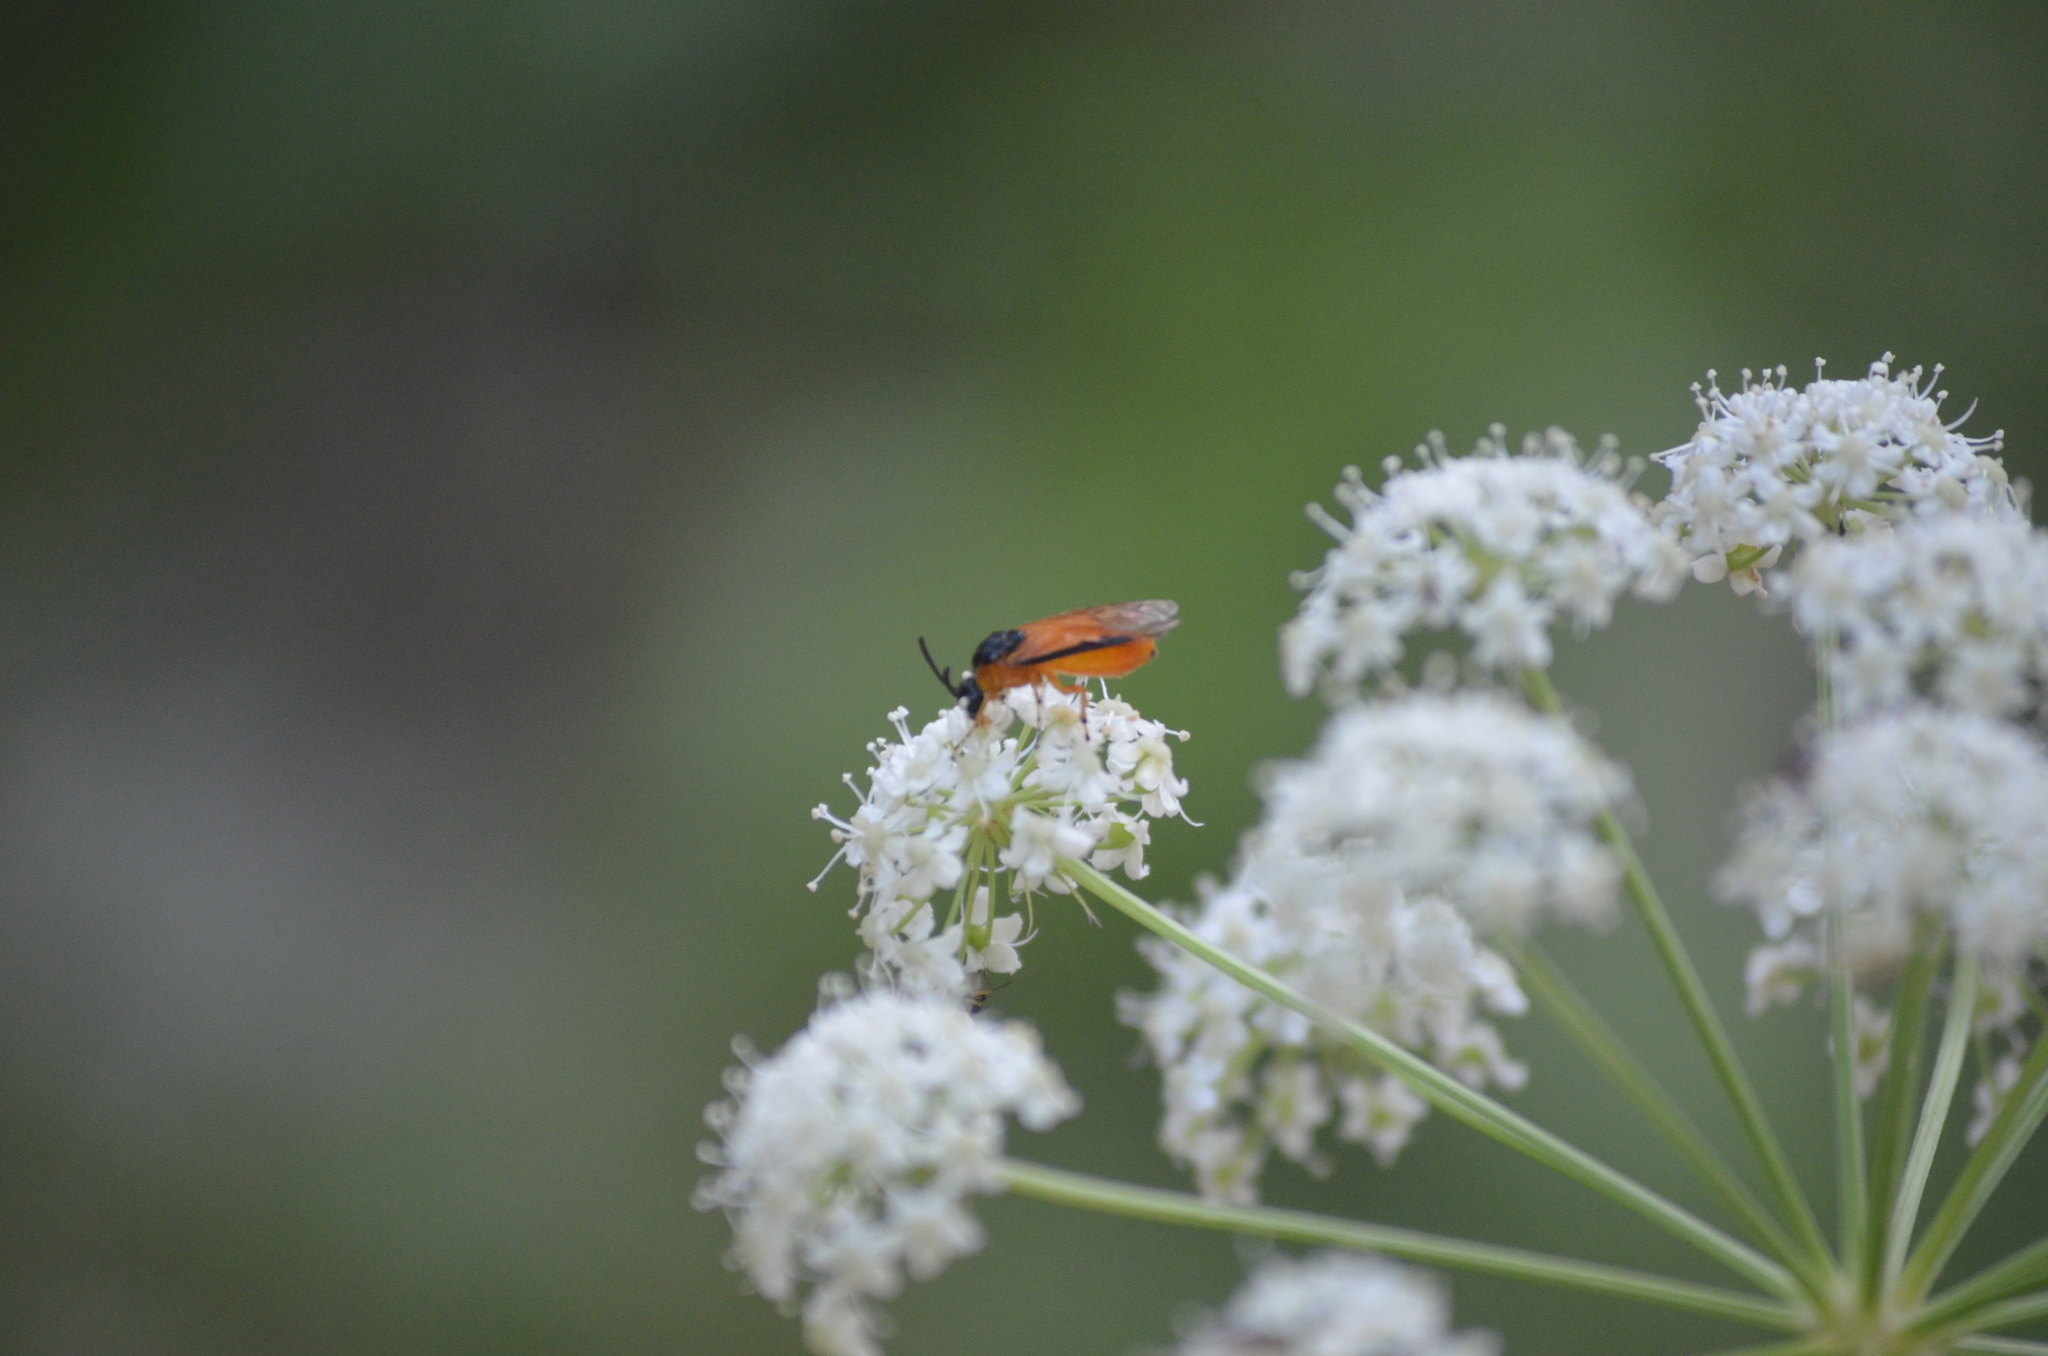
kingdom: Animalia
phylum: Arthropoda
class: Insecta
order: Hymenoptera
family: Argidae
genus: Arge
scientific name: Arge ochropus
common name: Argid sawfly
